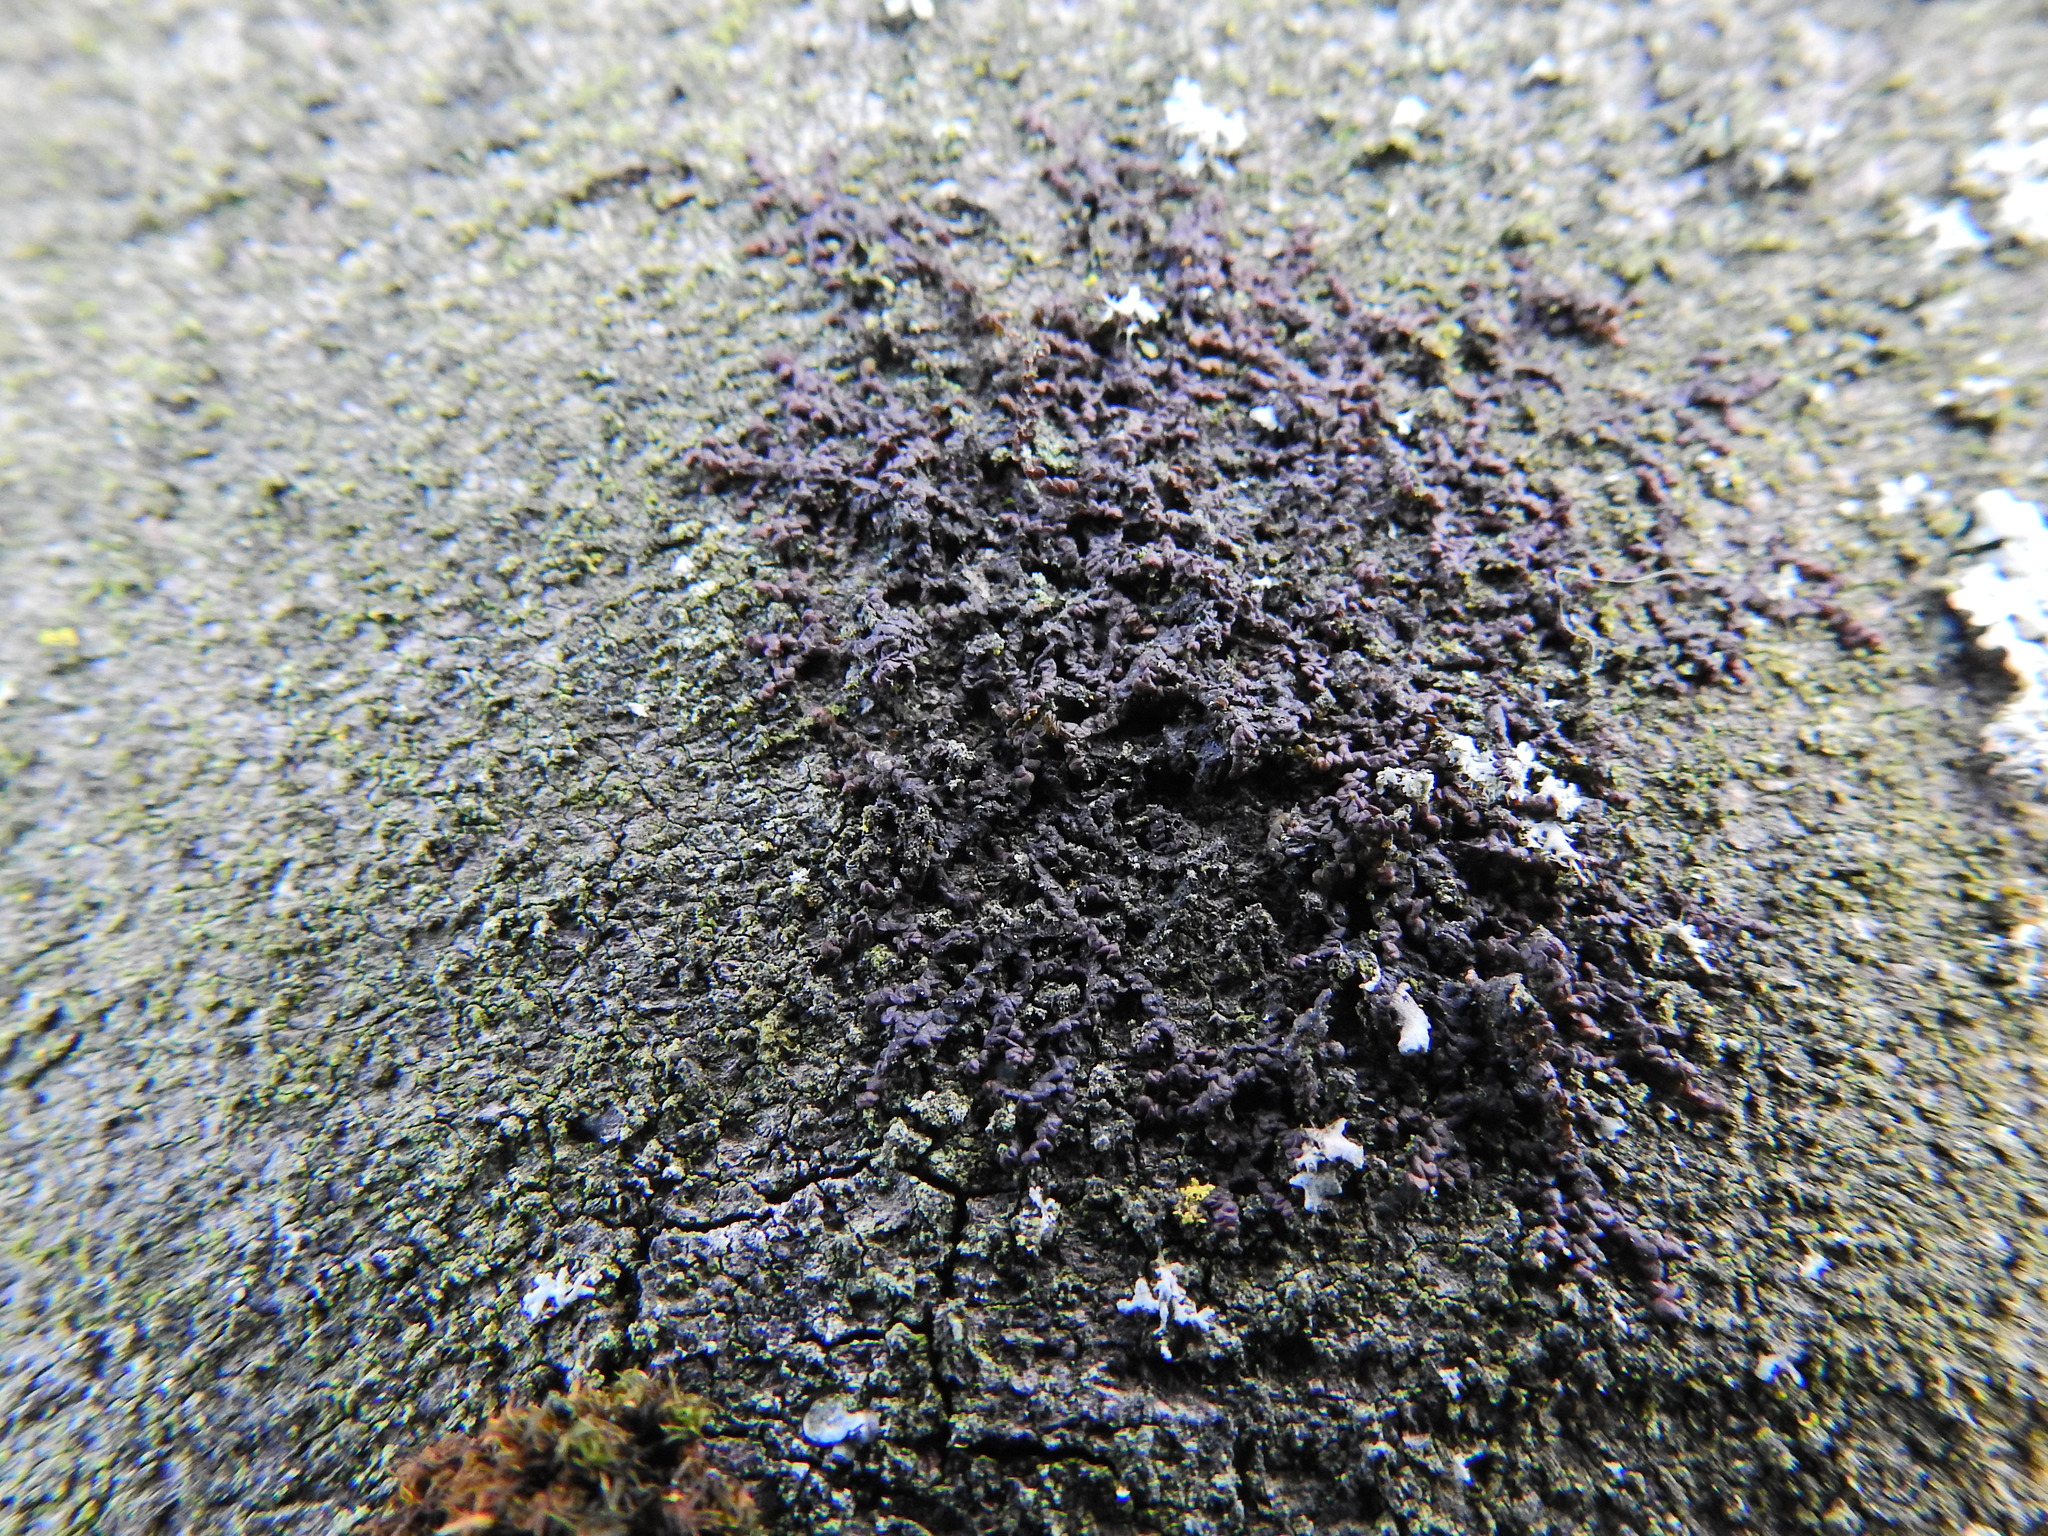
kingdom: Plantae
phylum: Marchantiophyta
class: Jungermanniopsida
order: Porellales
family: Frullaniaceae
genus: Frullania
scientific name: Frullania dilatata
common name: Dilated scalewort
